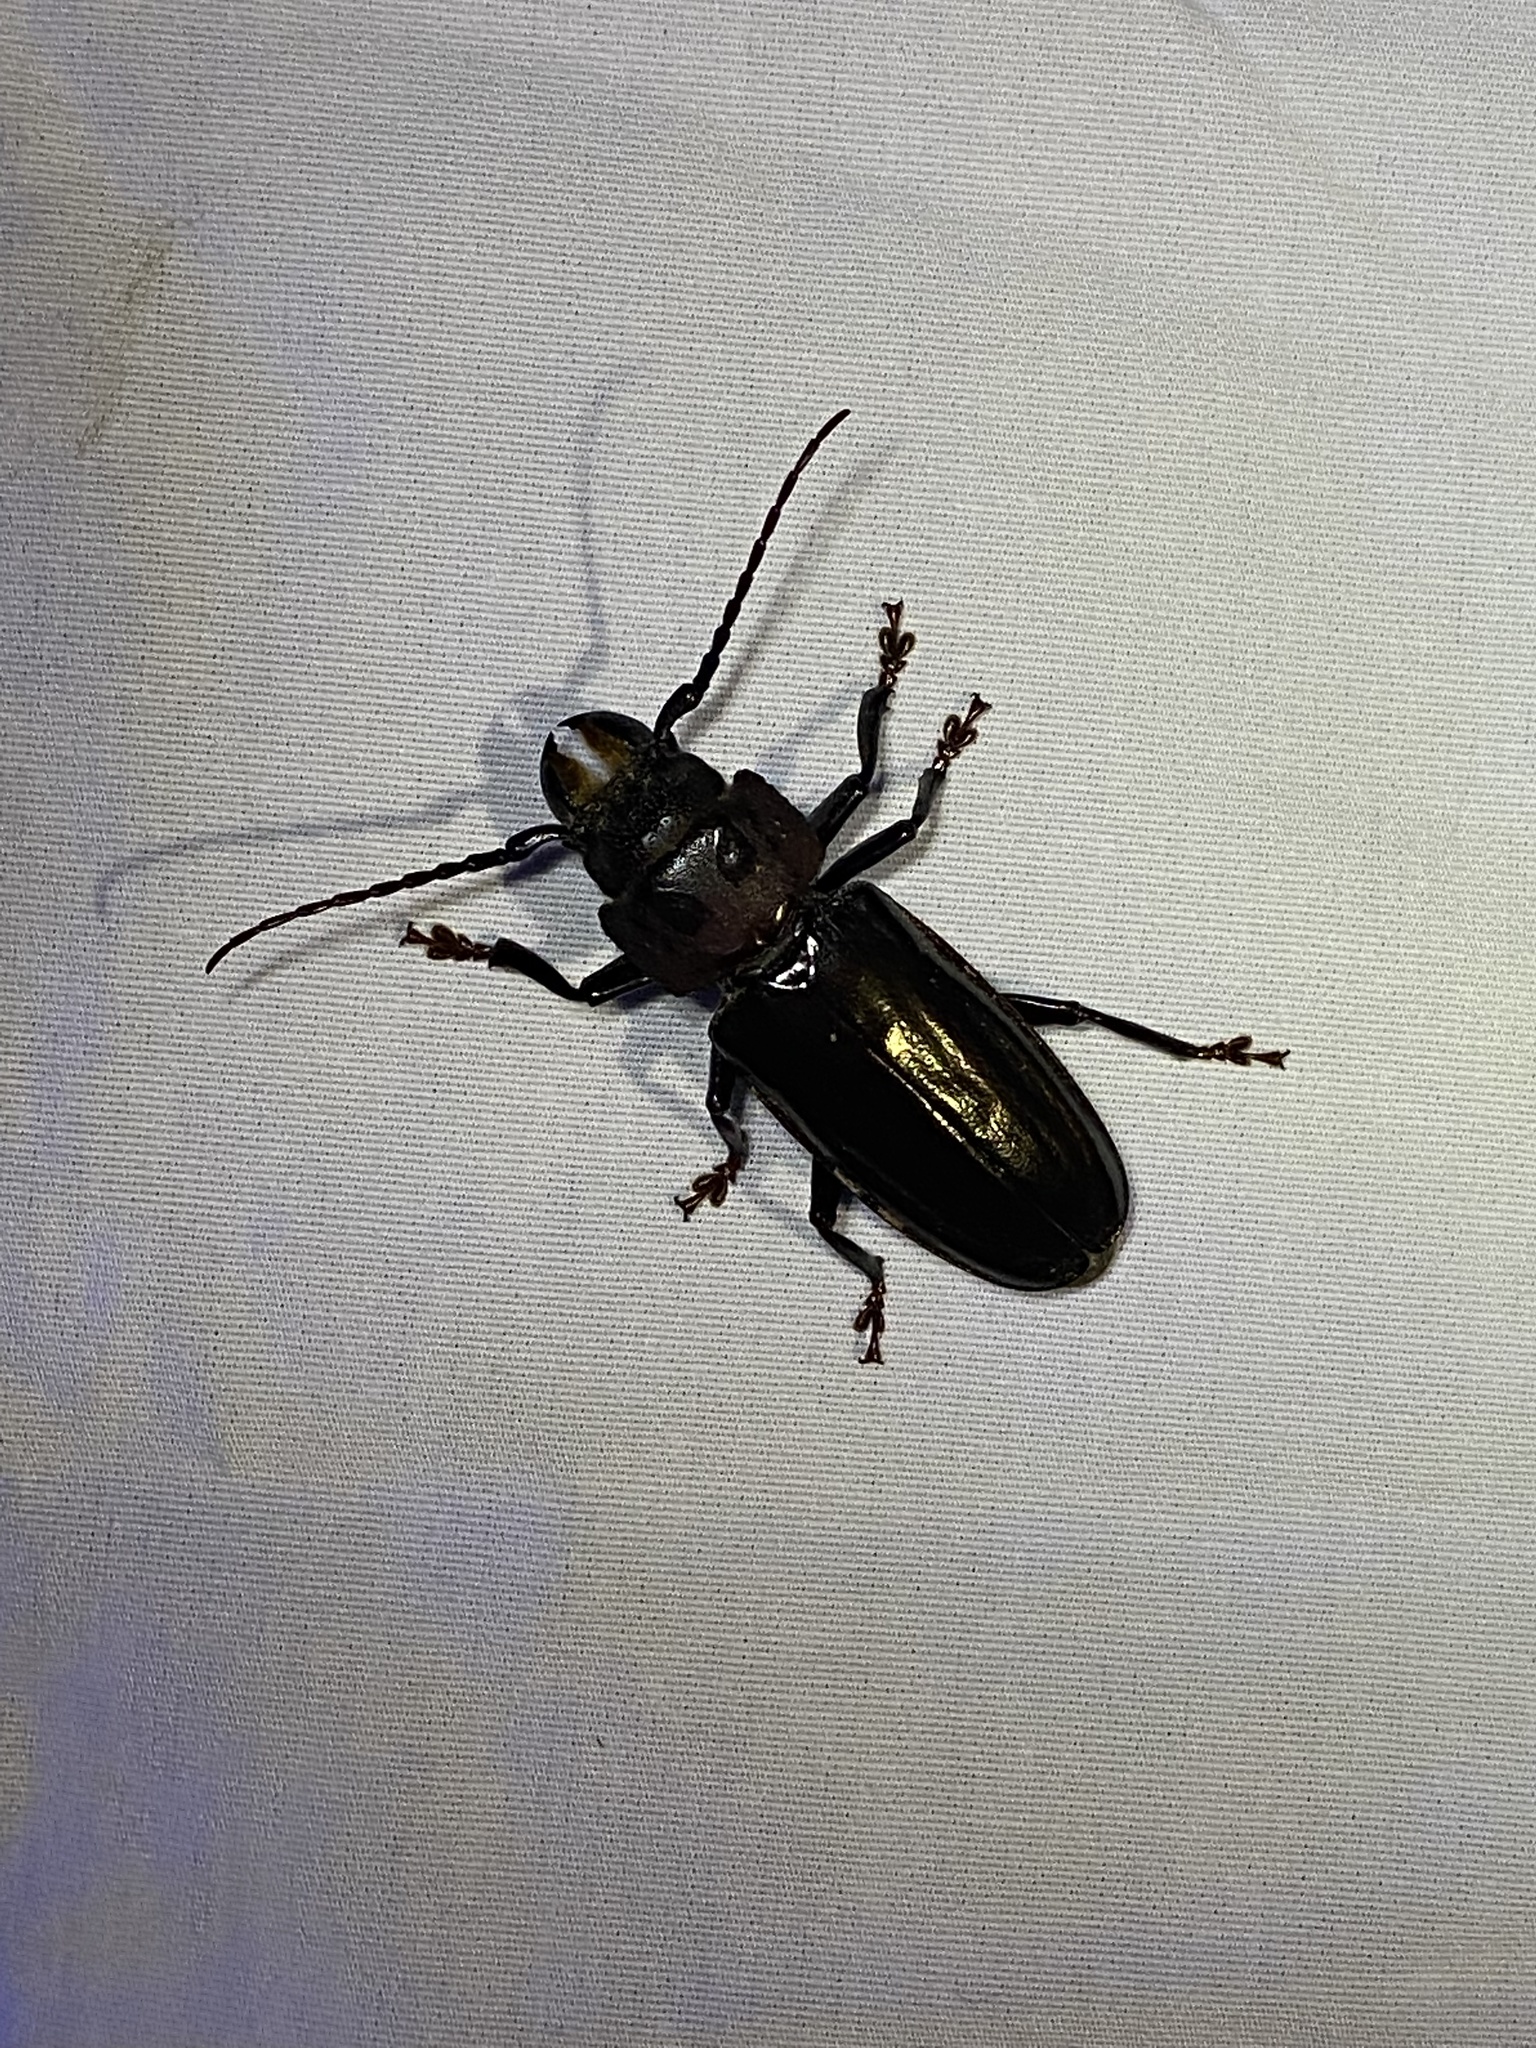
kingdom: Animalia
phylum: Arthropoda
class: Insecta
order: Coleoptera
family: Cerambycidae
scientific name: Cerambycidae
